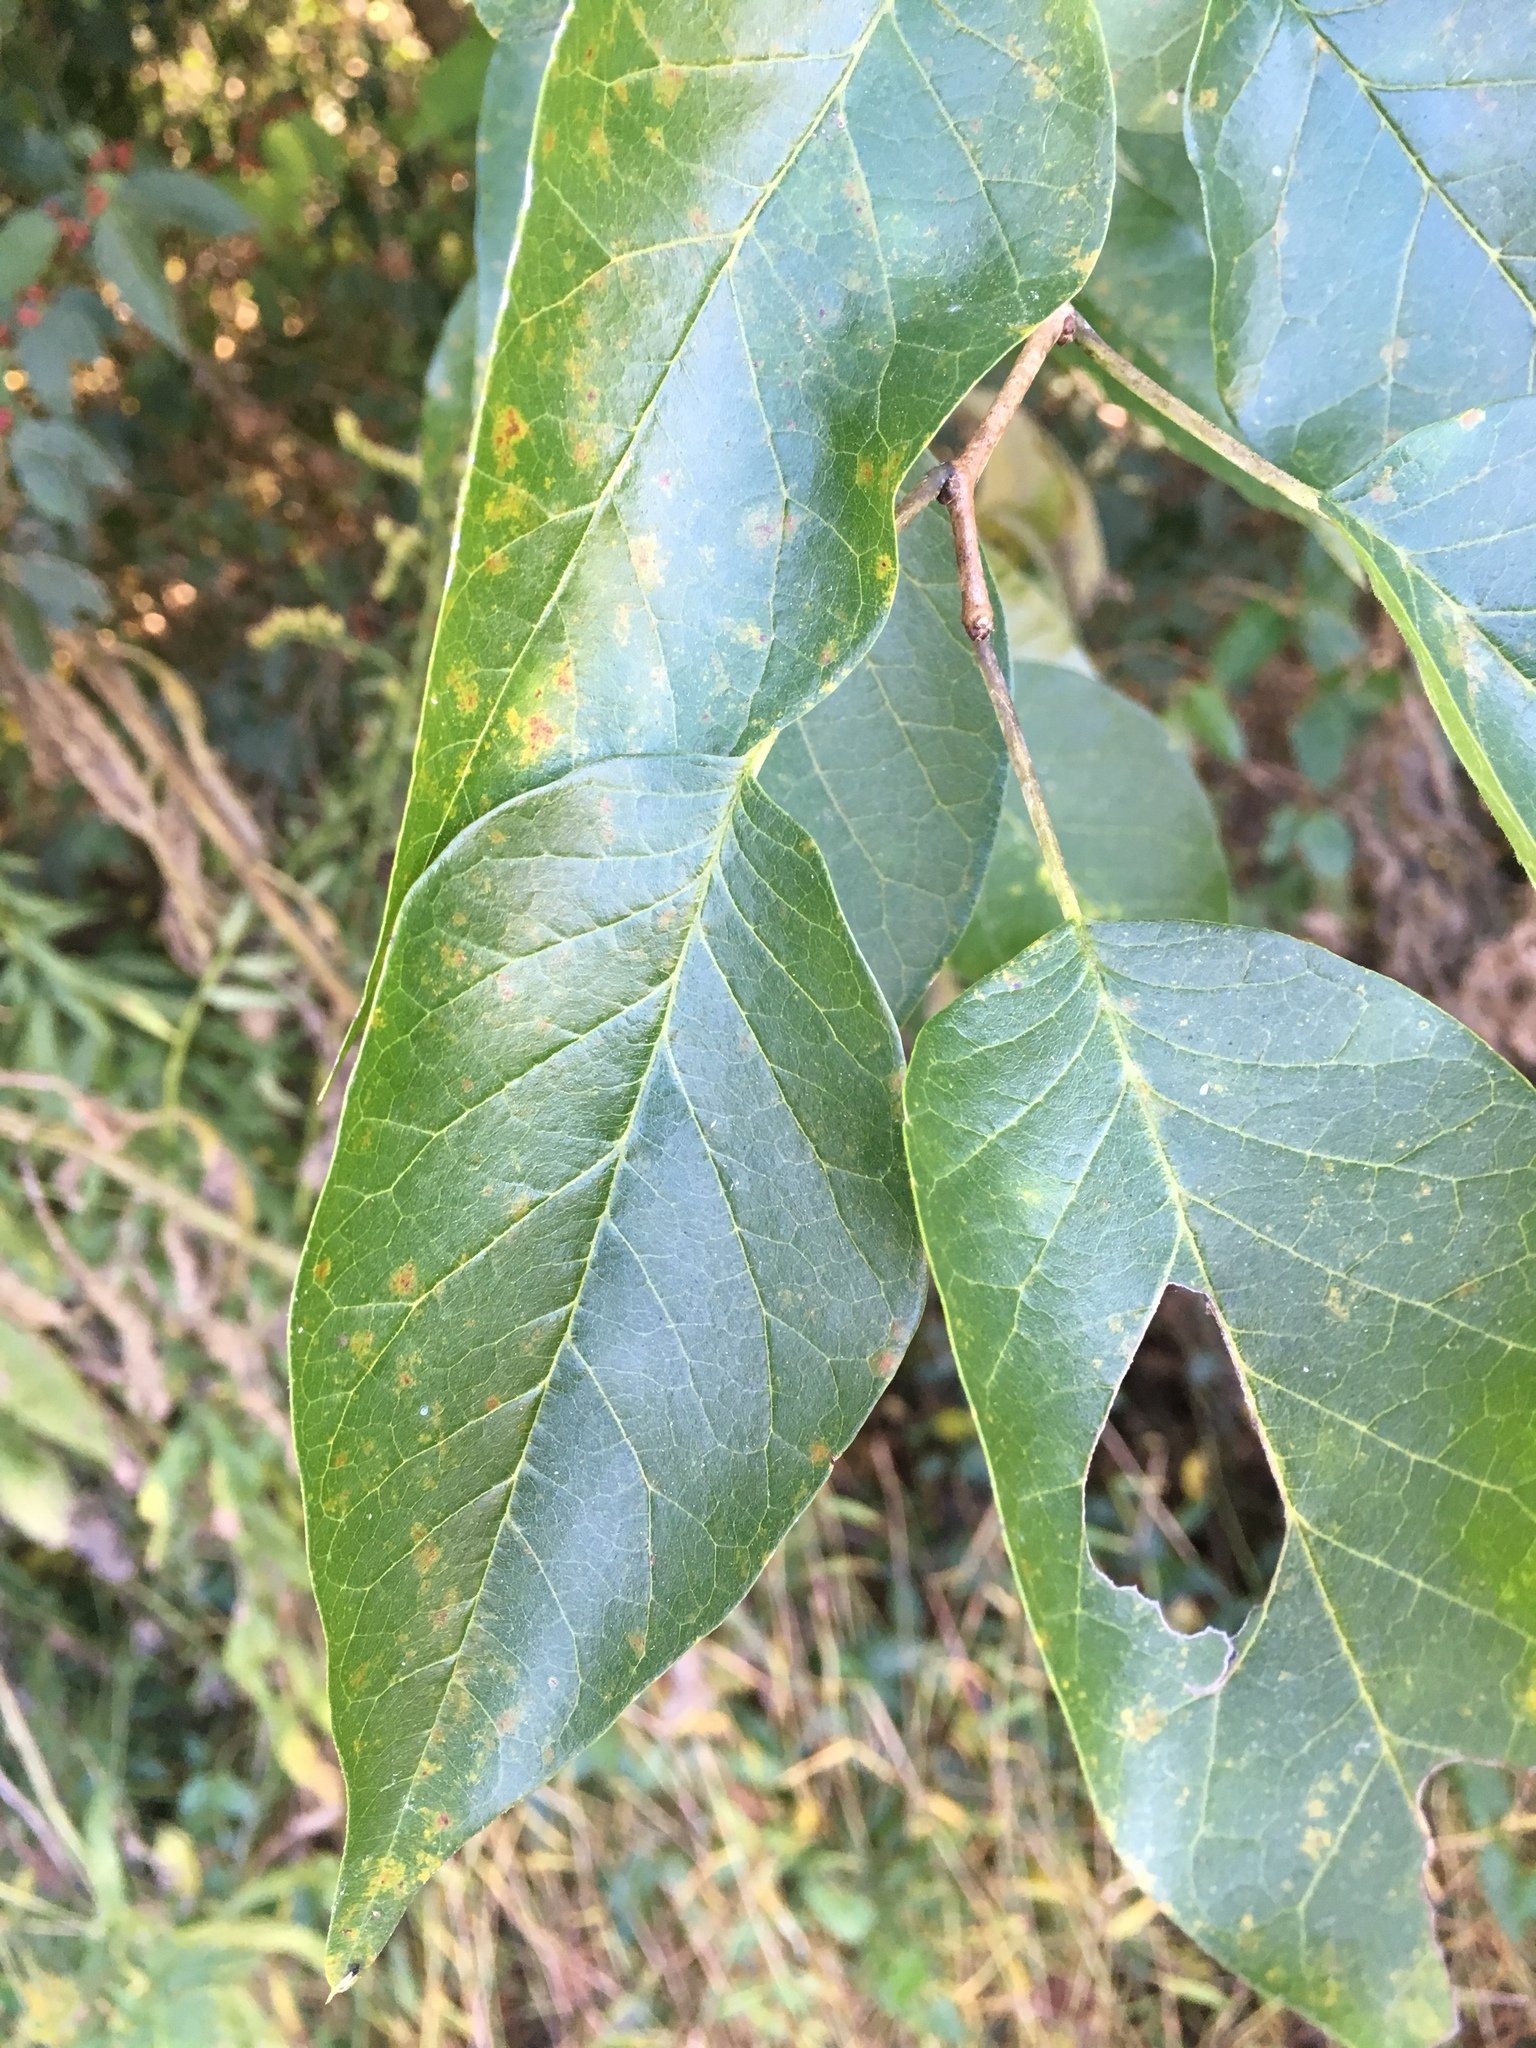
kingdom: Plantae
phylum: Tracheophyta
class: Magnoliopsida
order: Rosales
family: Moraceae
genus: Maclura
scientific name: Maclura pomifera
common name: Osage-orange
